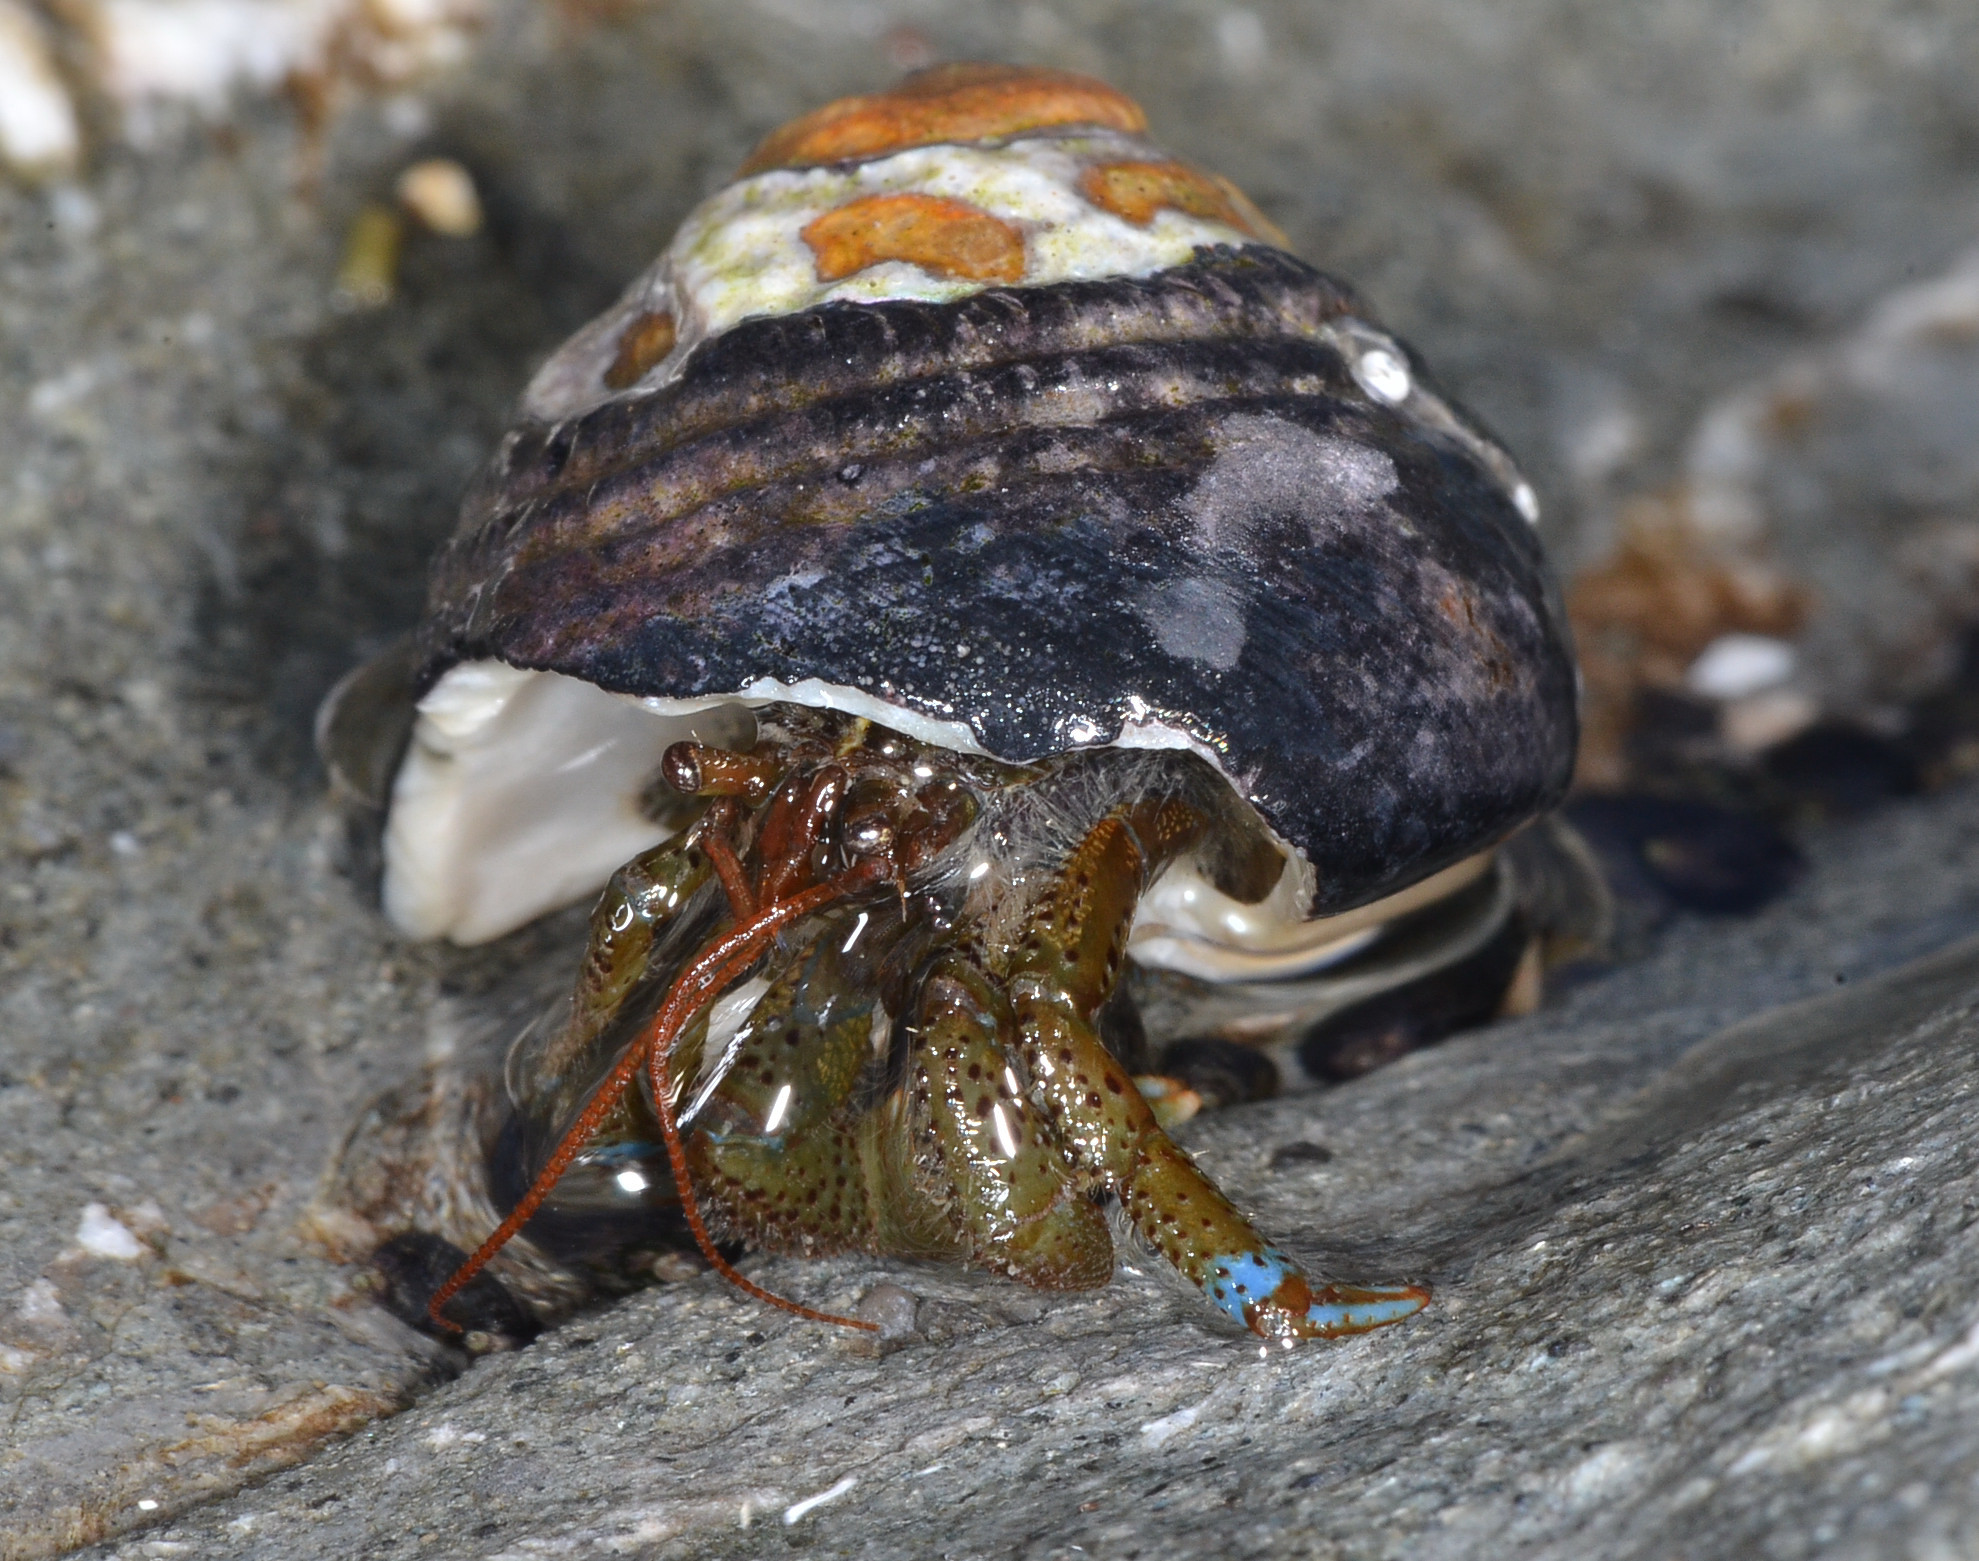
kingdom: Animalia
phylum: Arthropoda
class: Malacostraca
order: Decapoda
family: Paguridae
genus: Pagurus
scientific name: Pagurus samuelis
